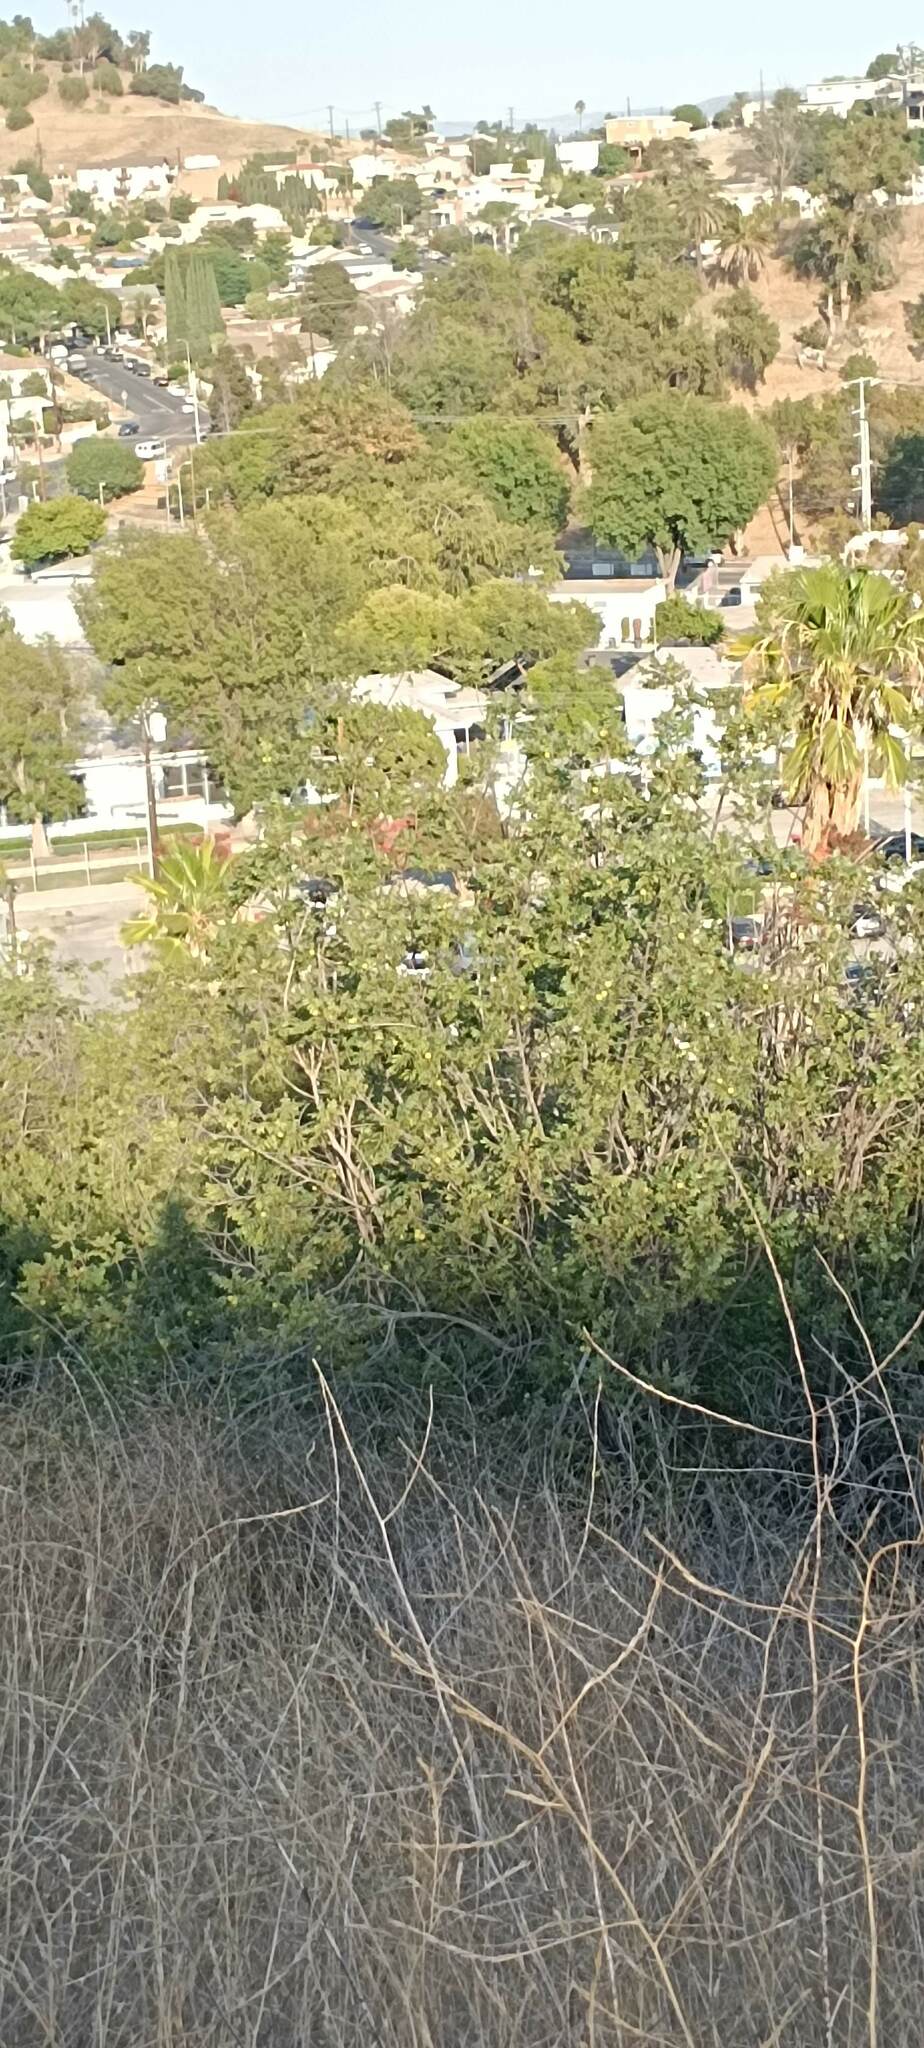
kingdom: Plantae
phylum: Tracheophyta
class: Magnoliopsida
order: Fagales
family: Juglandaceae
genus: Juglans
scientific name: Juglans californica
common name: Southern california black walnut
